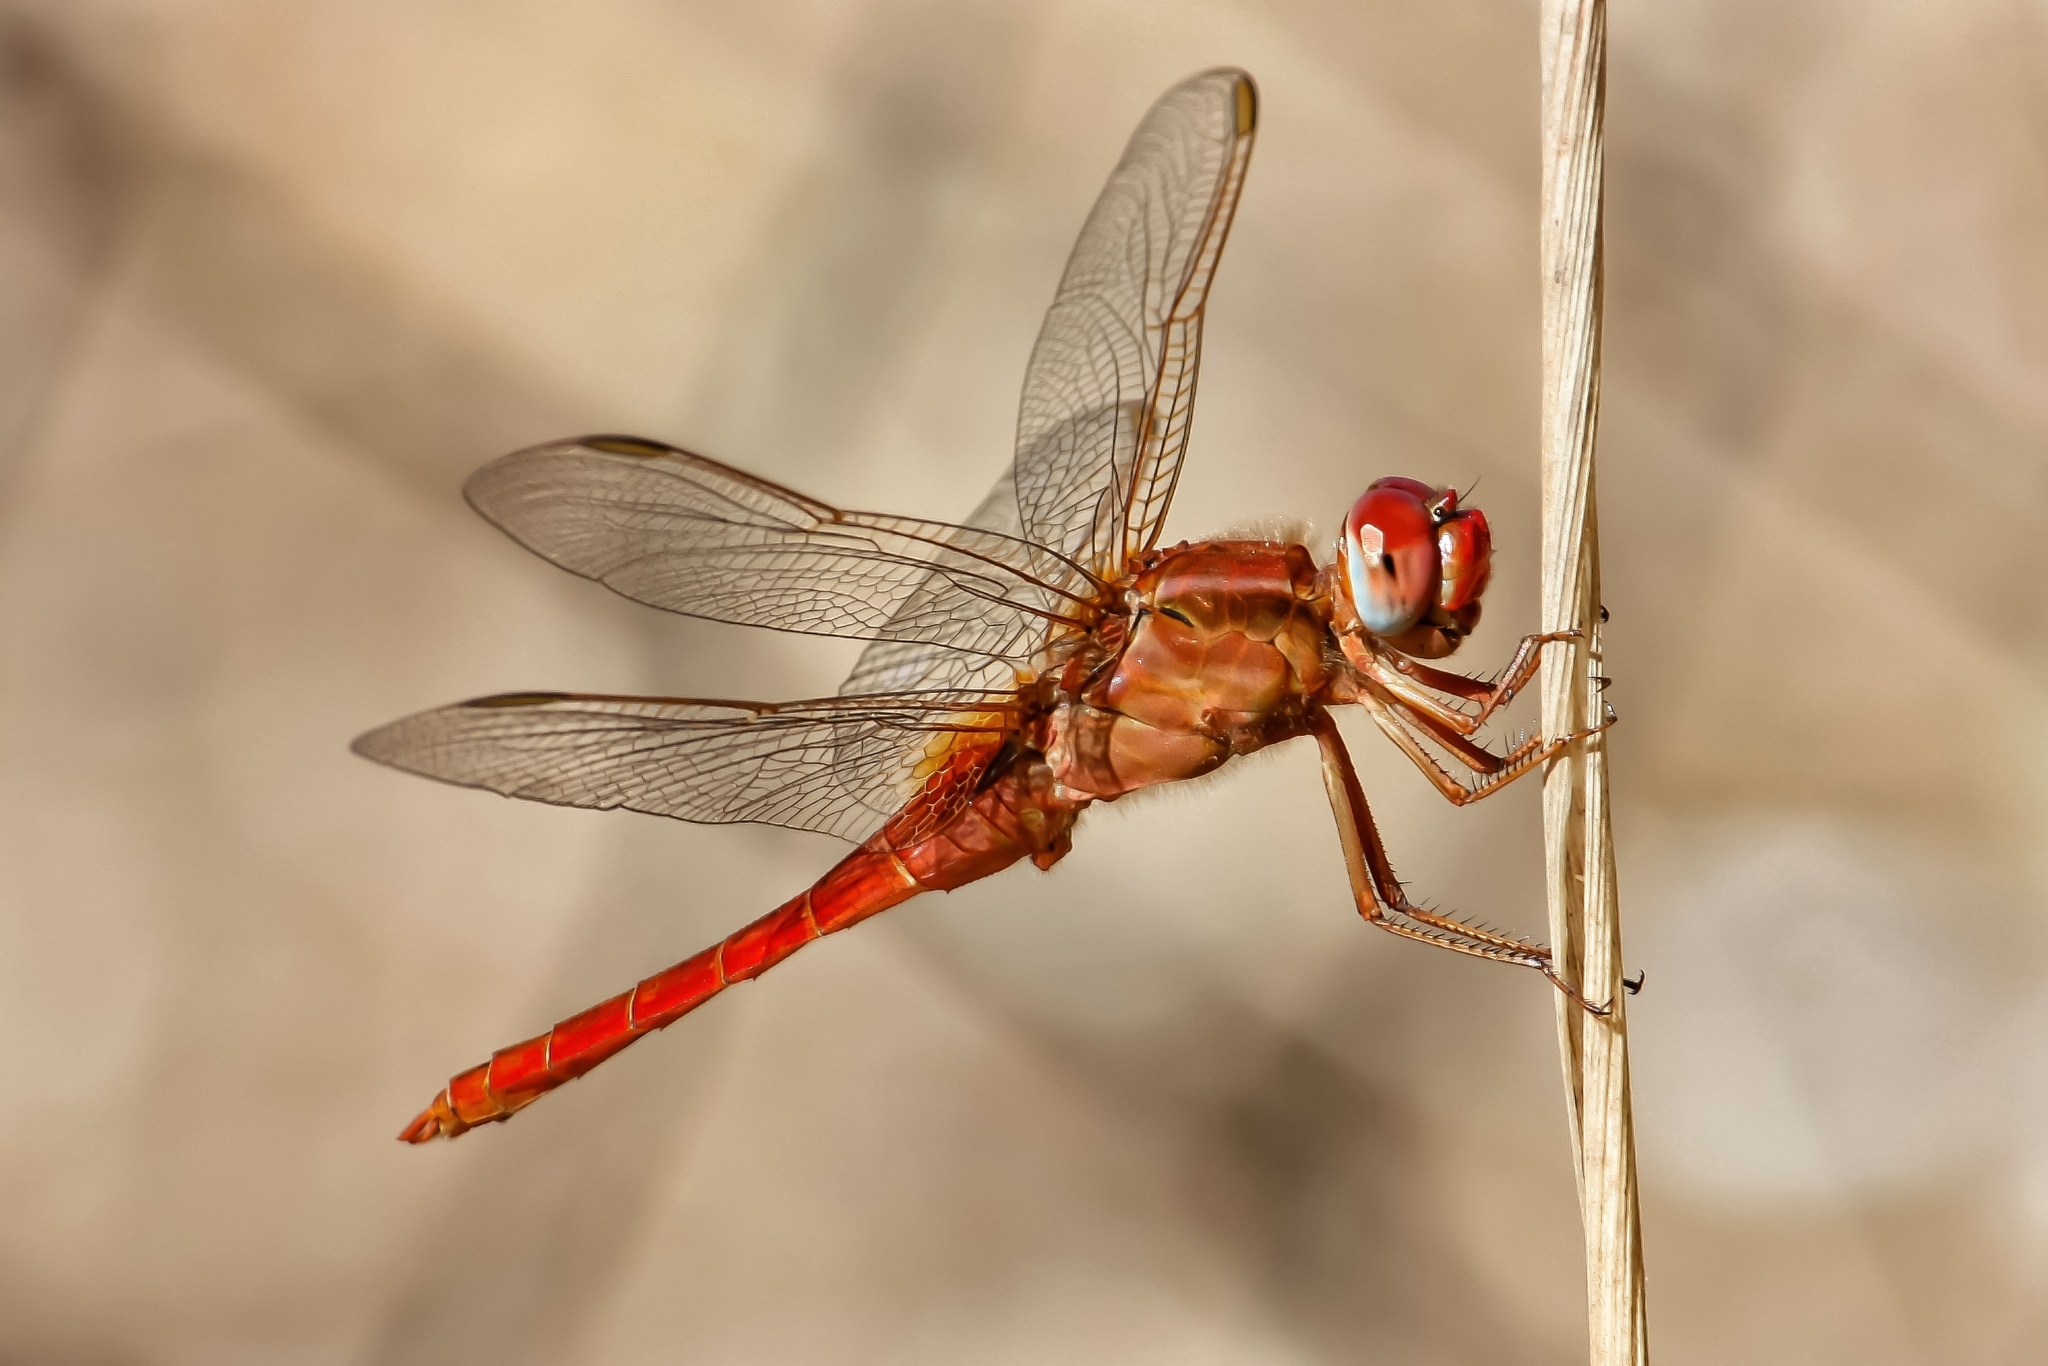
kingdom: Animalia
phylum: Arthropoda
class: Insecta
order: Odonata
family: Libellulidae
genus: Crocothemis
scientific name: Crocothemis erythraea
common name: Scarlet dragonfly
